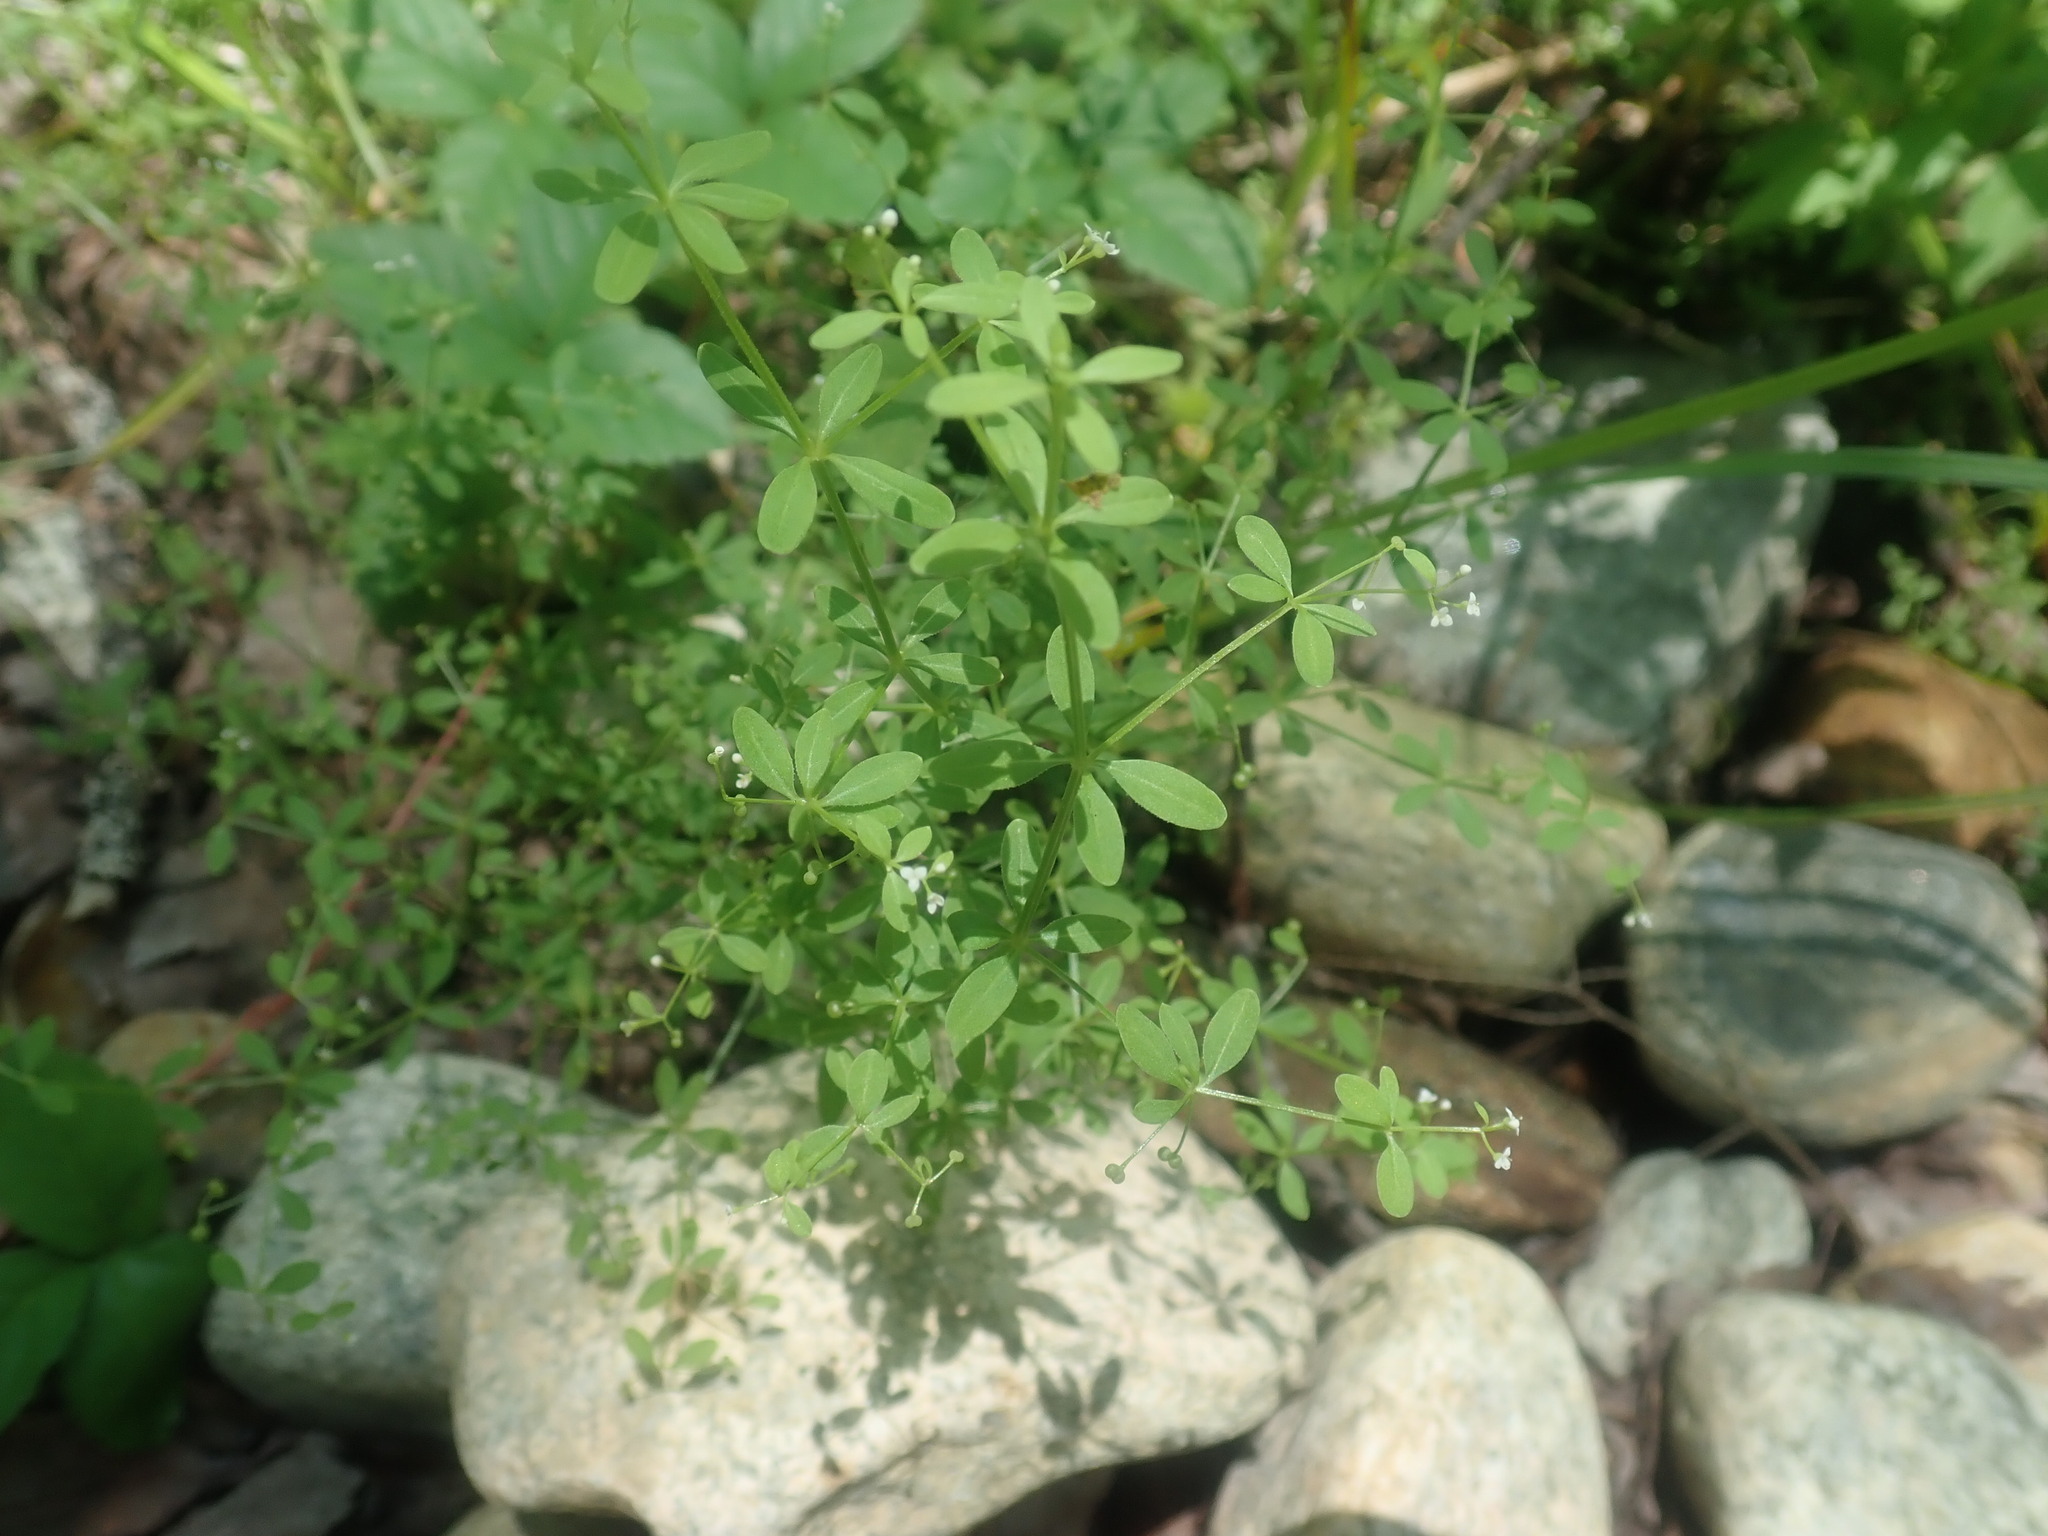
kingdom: Plantae
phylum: Tracheophyta
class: Magnoliopsida
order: Gentianales
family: Rubiaceae
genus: Galium
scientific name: Galium palustre
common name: Common marsh-bedstraw
